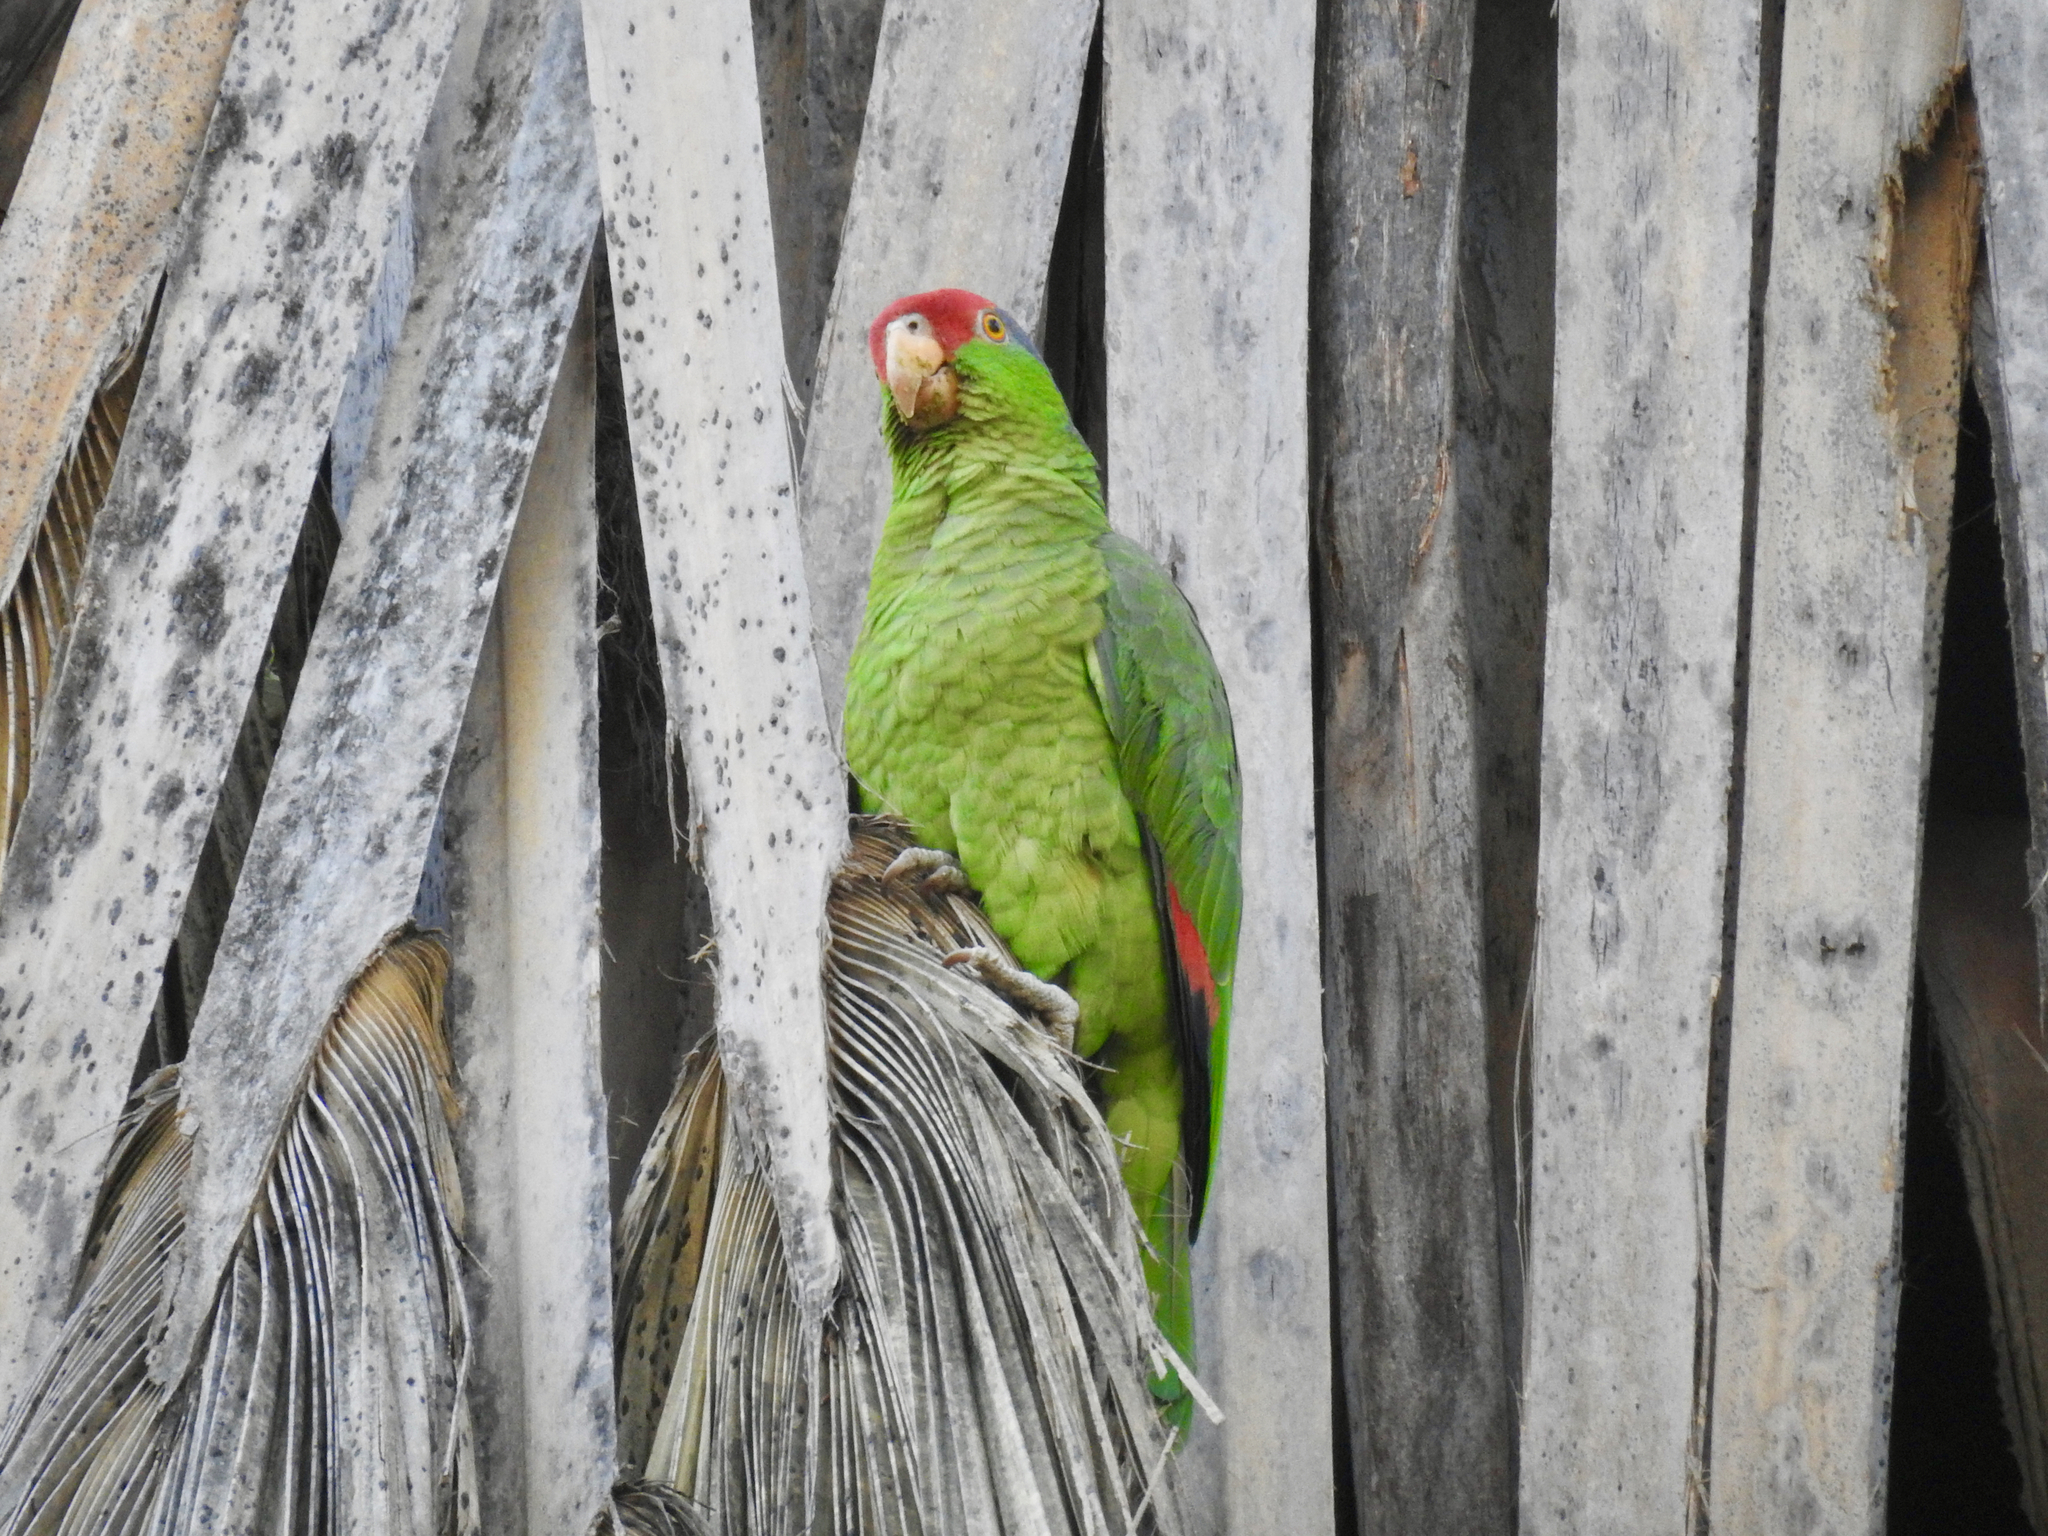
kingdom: Animalia
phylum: Chordata
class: Aves
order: Psittaciformes
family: Psittacidae
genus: Amazona
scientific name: Amazona viridigenalis
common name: Red-crowned amazon
